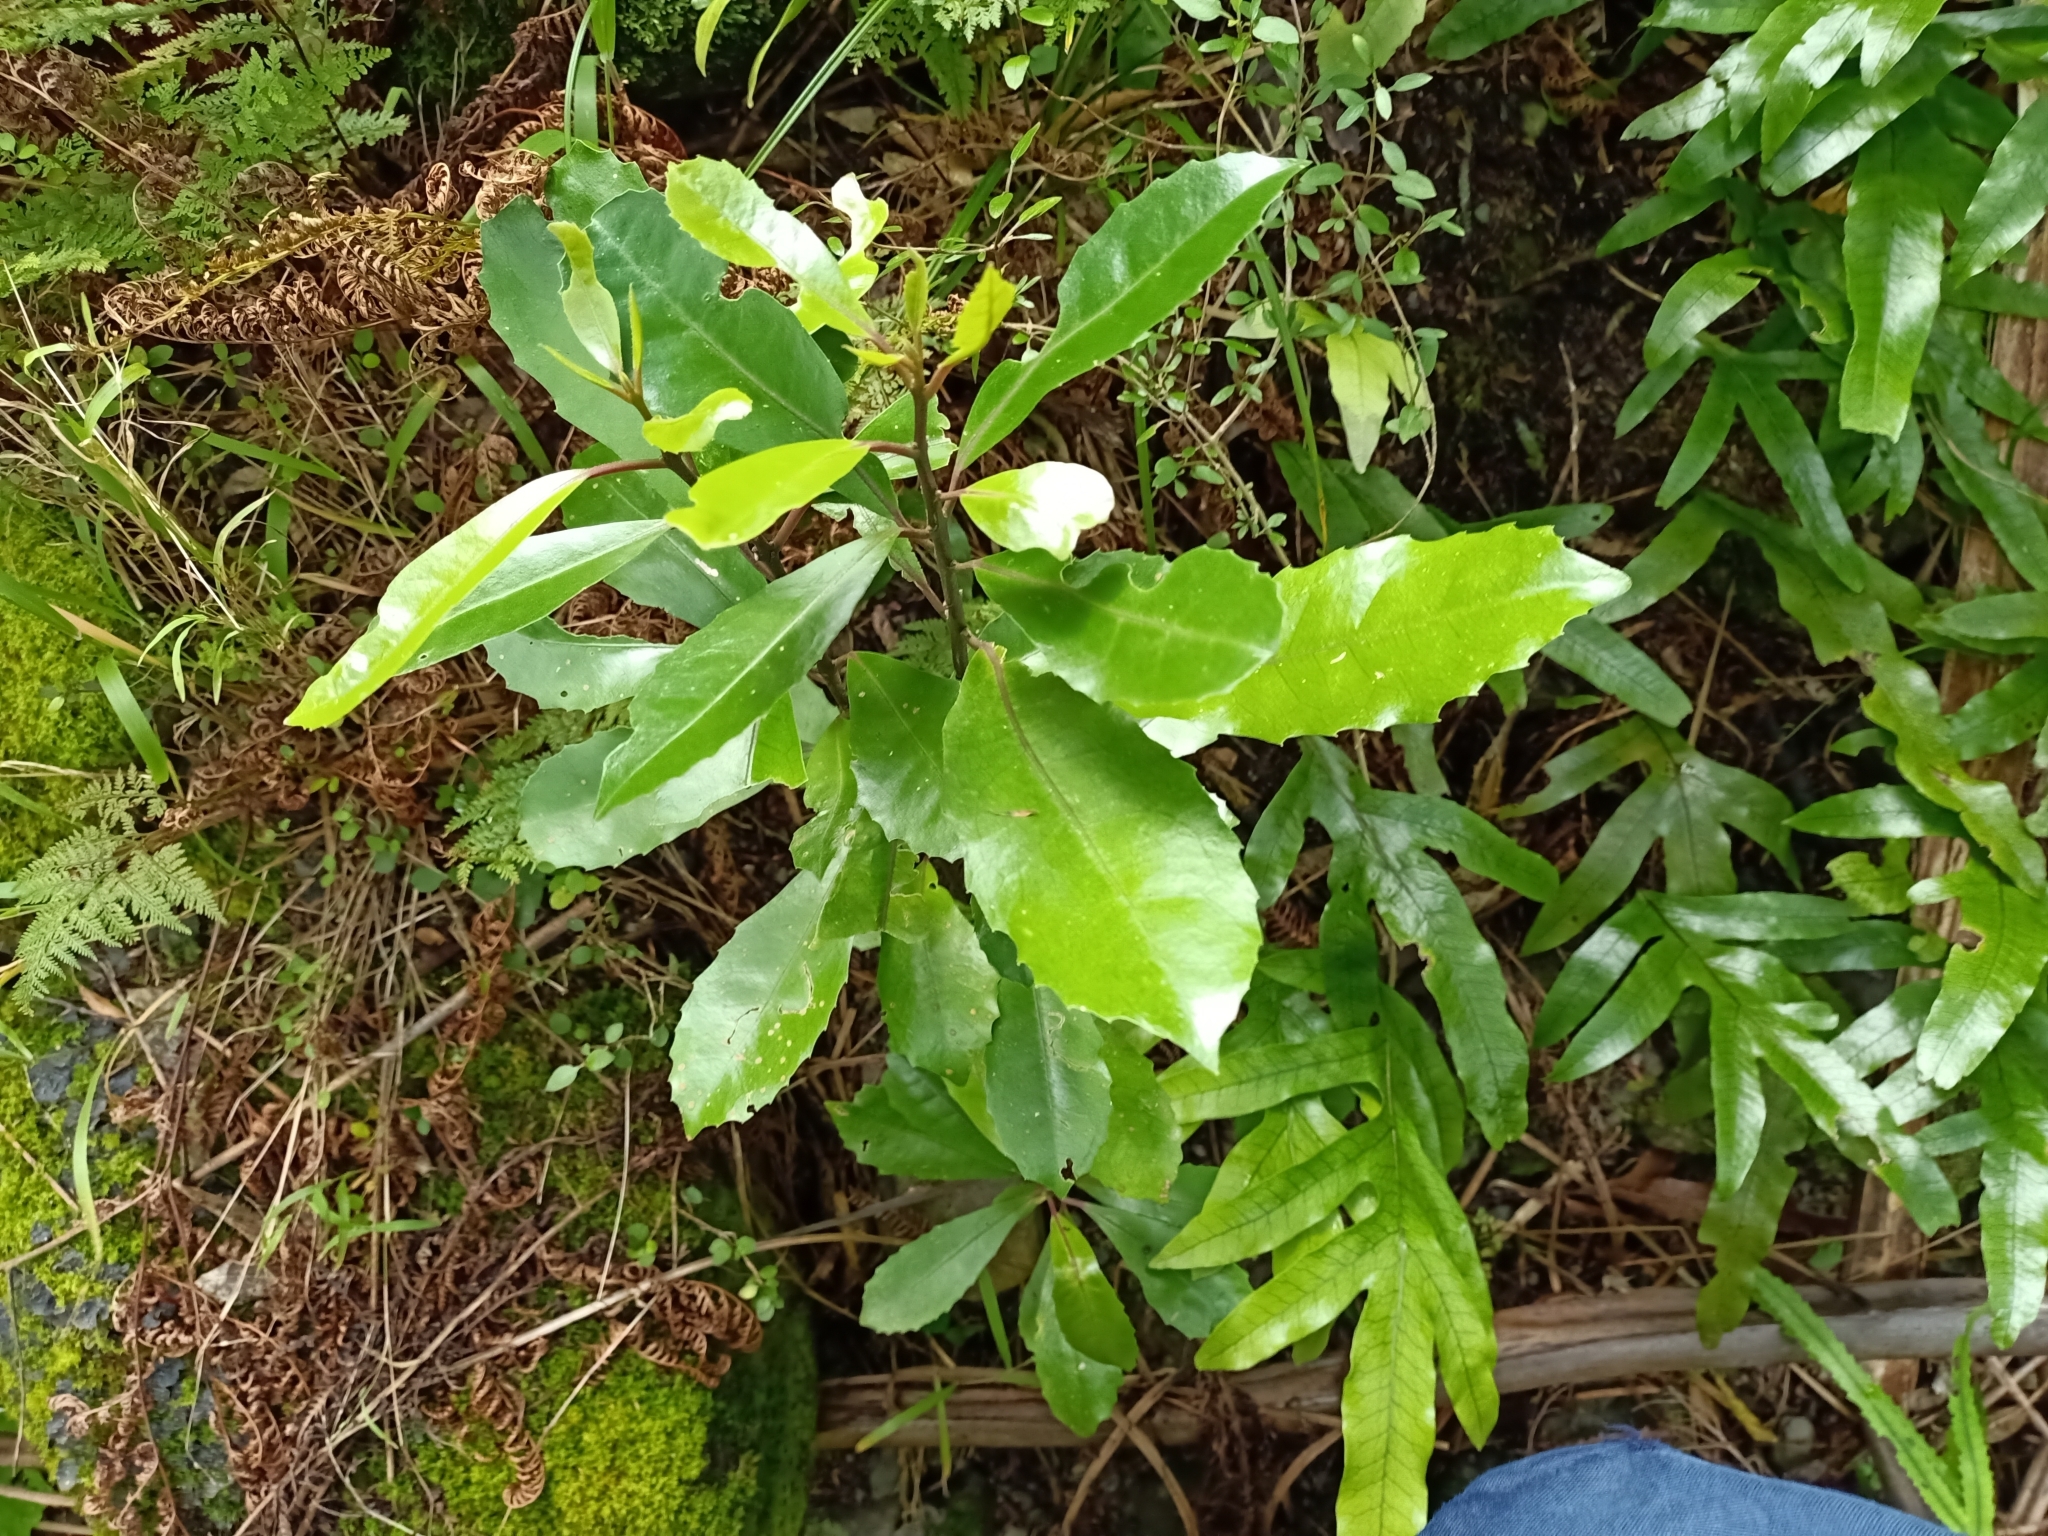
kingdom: Plantae
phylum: Tracheophyta
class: Magnoliopsida
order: Laurales
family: Monimiaceae
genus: Hedycarya
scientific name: Hedycarya arborea
